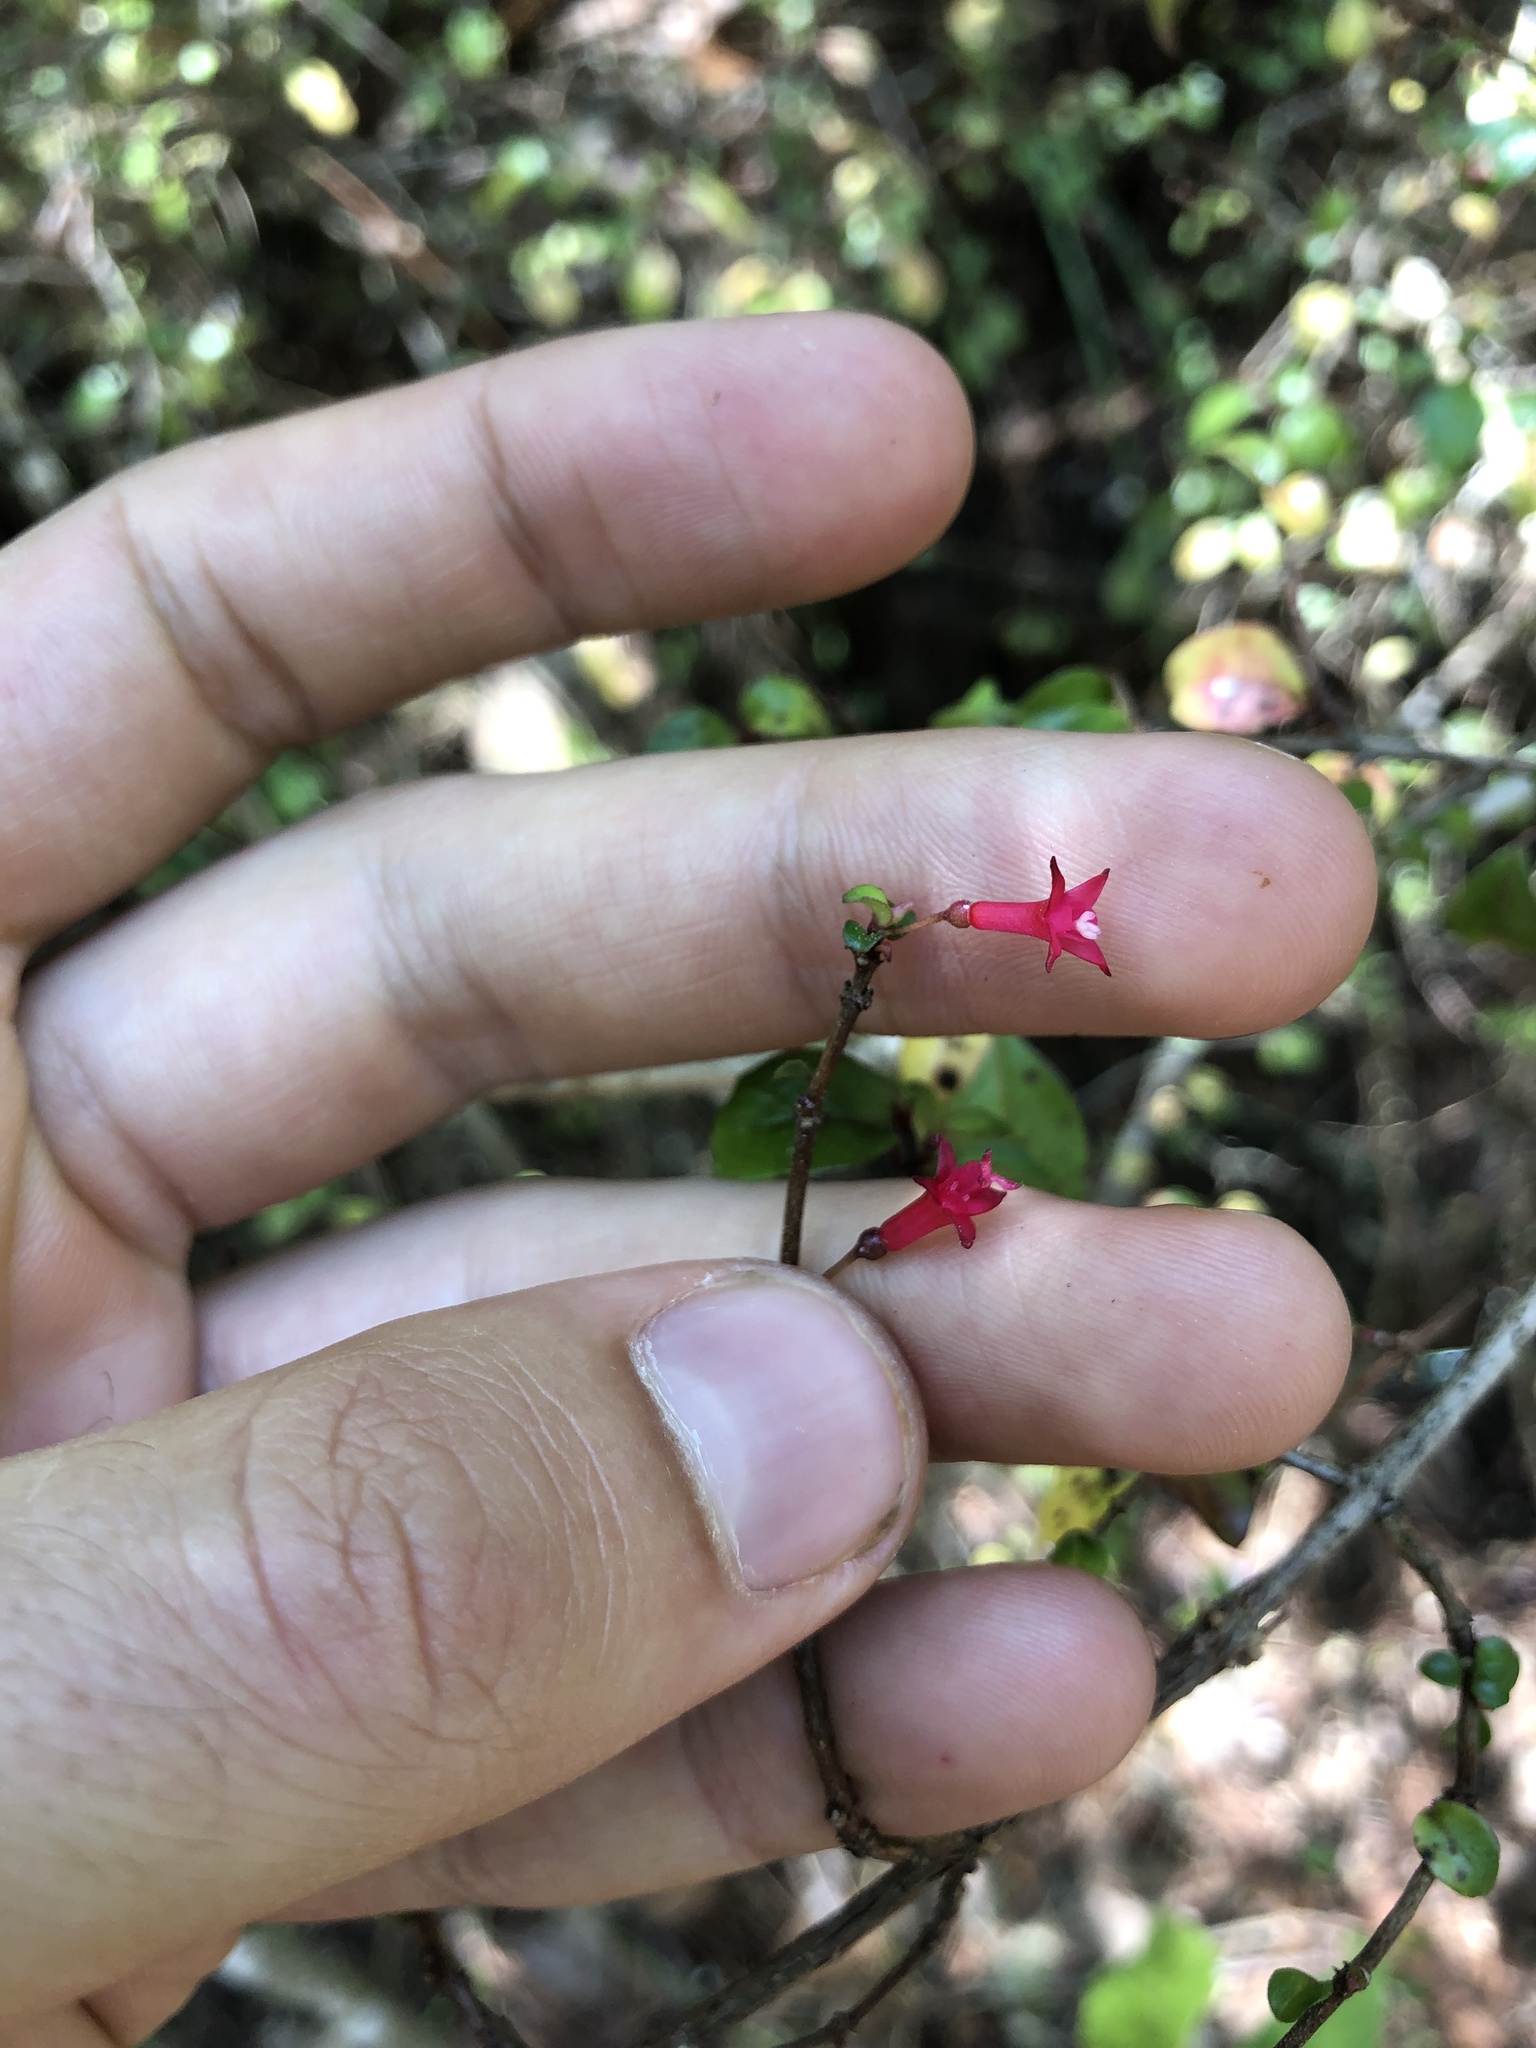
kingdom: Plantae
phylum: Tracheophyta
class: Magnoliopsida
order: Myrtales
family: Onagraceae
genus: Fuchsia
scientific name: Fuchsia microphylla
